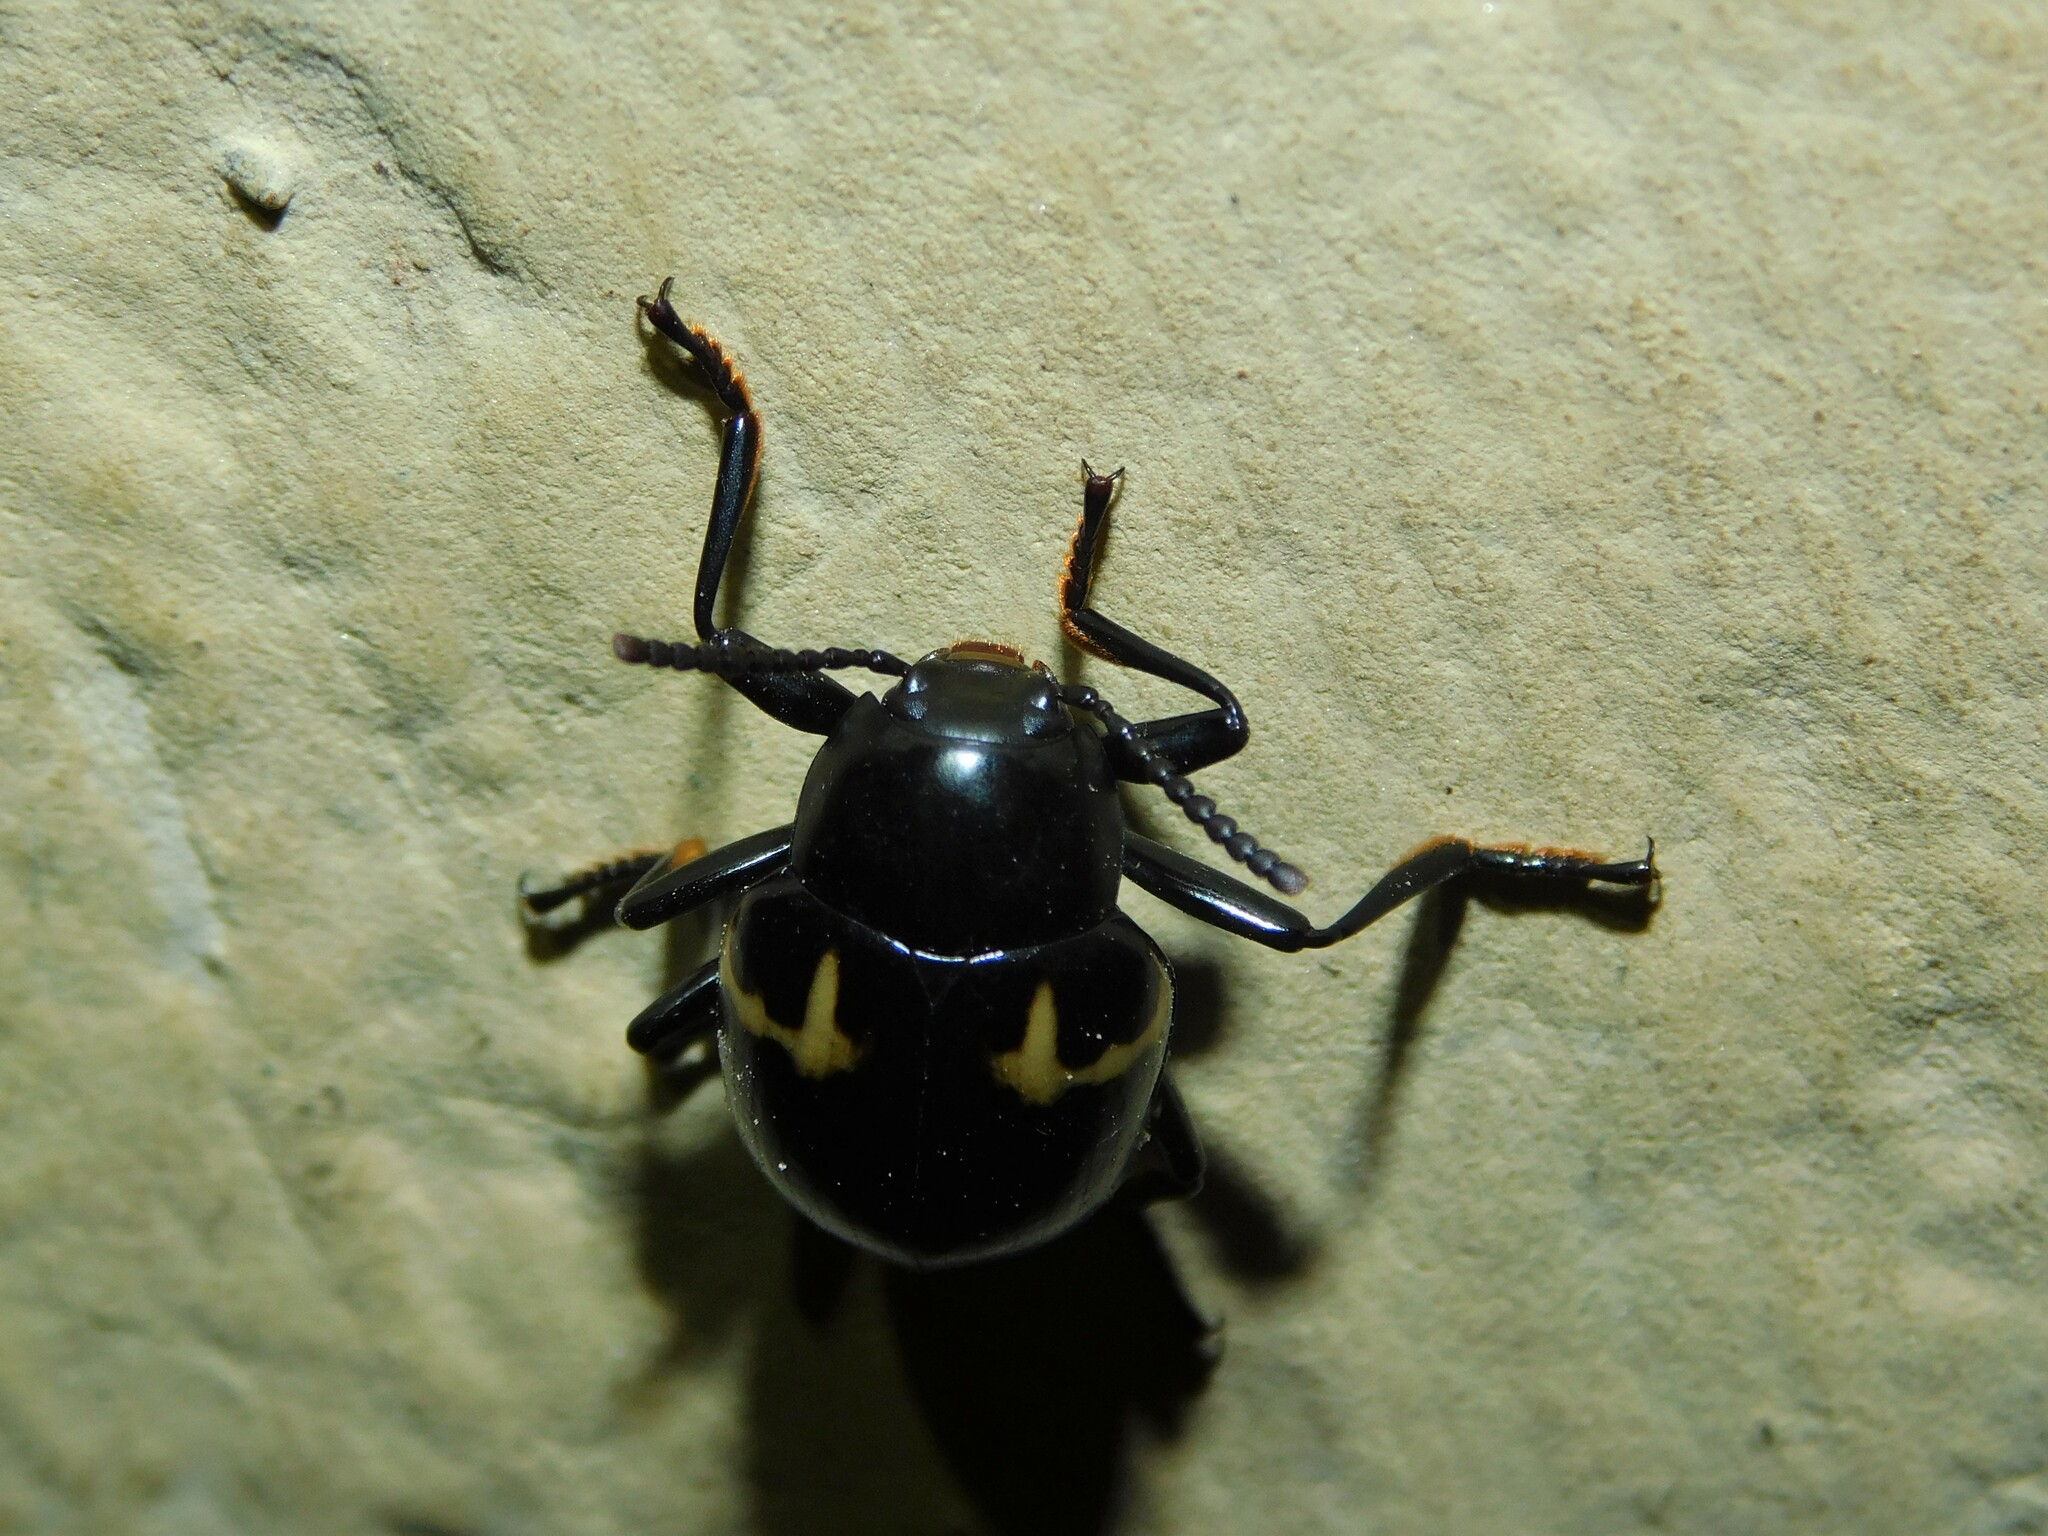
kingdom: Animalia
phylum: Arthropoda
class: Insecta
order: Coleoptera
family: Tenebrionidae
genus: Hypamarygmus
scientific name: Hypamarygmus
